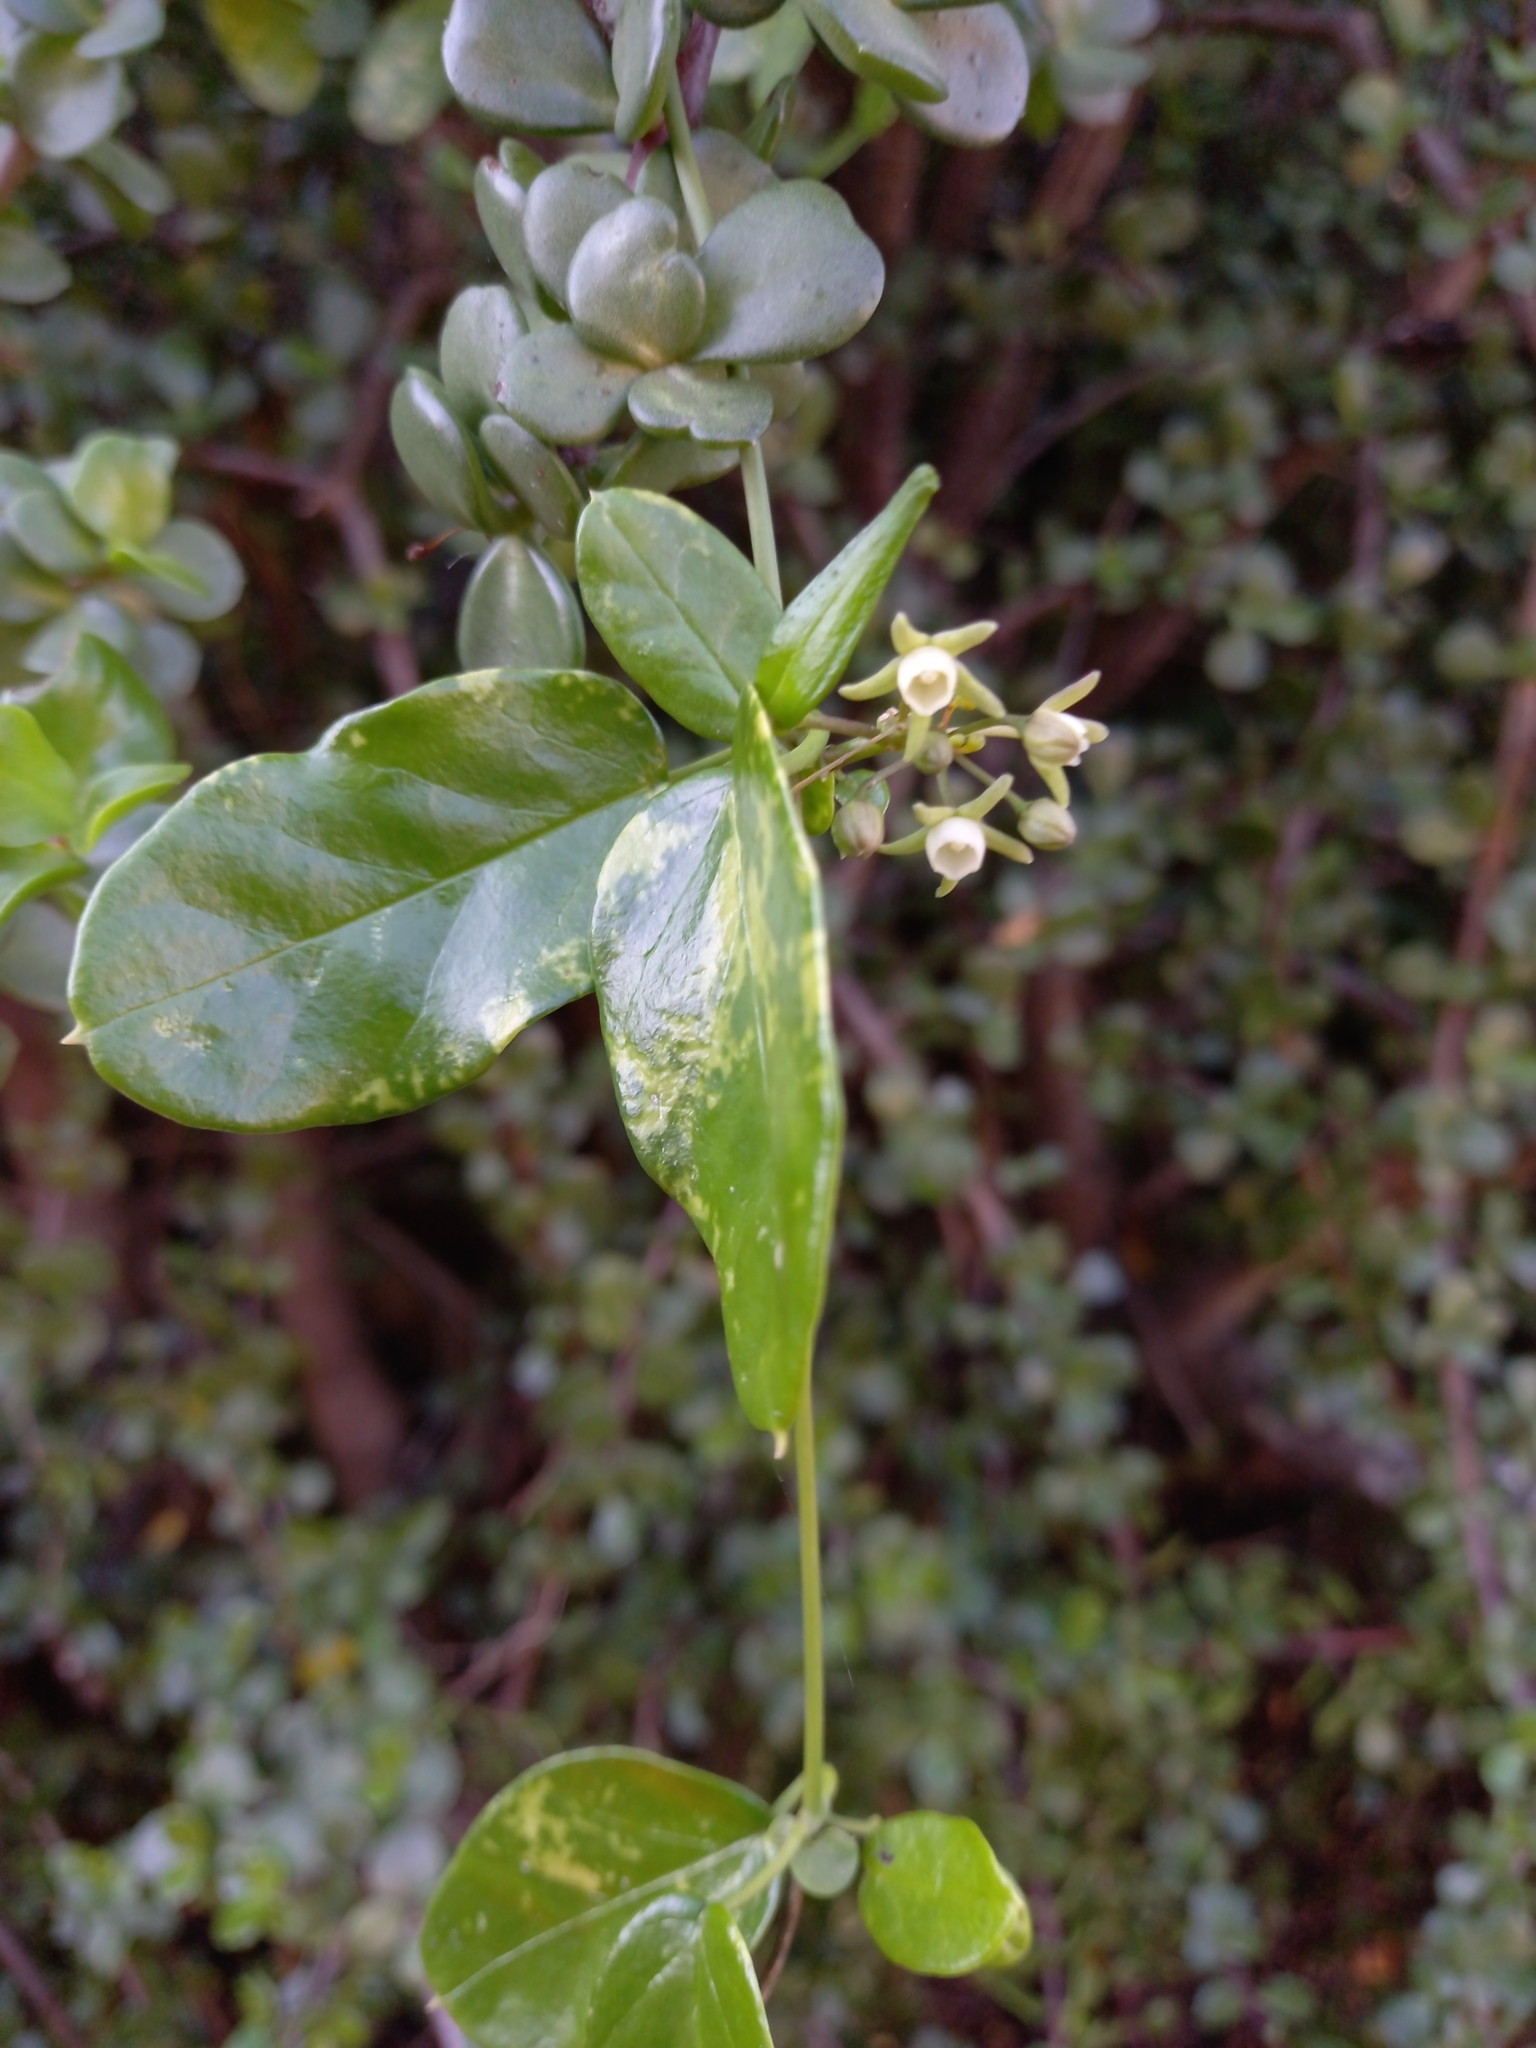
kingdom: Plantae
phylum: Tracheophyta
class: Magnoliopsida
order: Gentianales
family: Apocynaceae
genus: Cynanchum
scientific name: Cynanchum ellipticum
